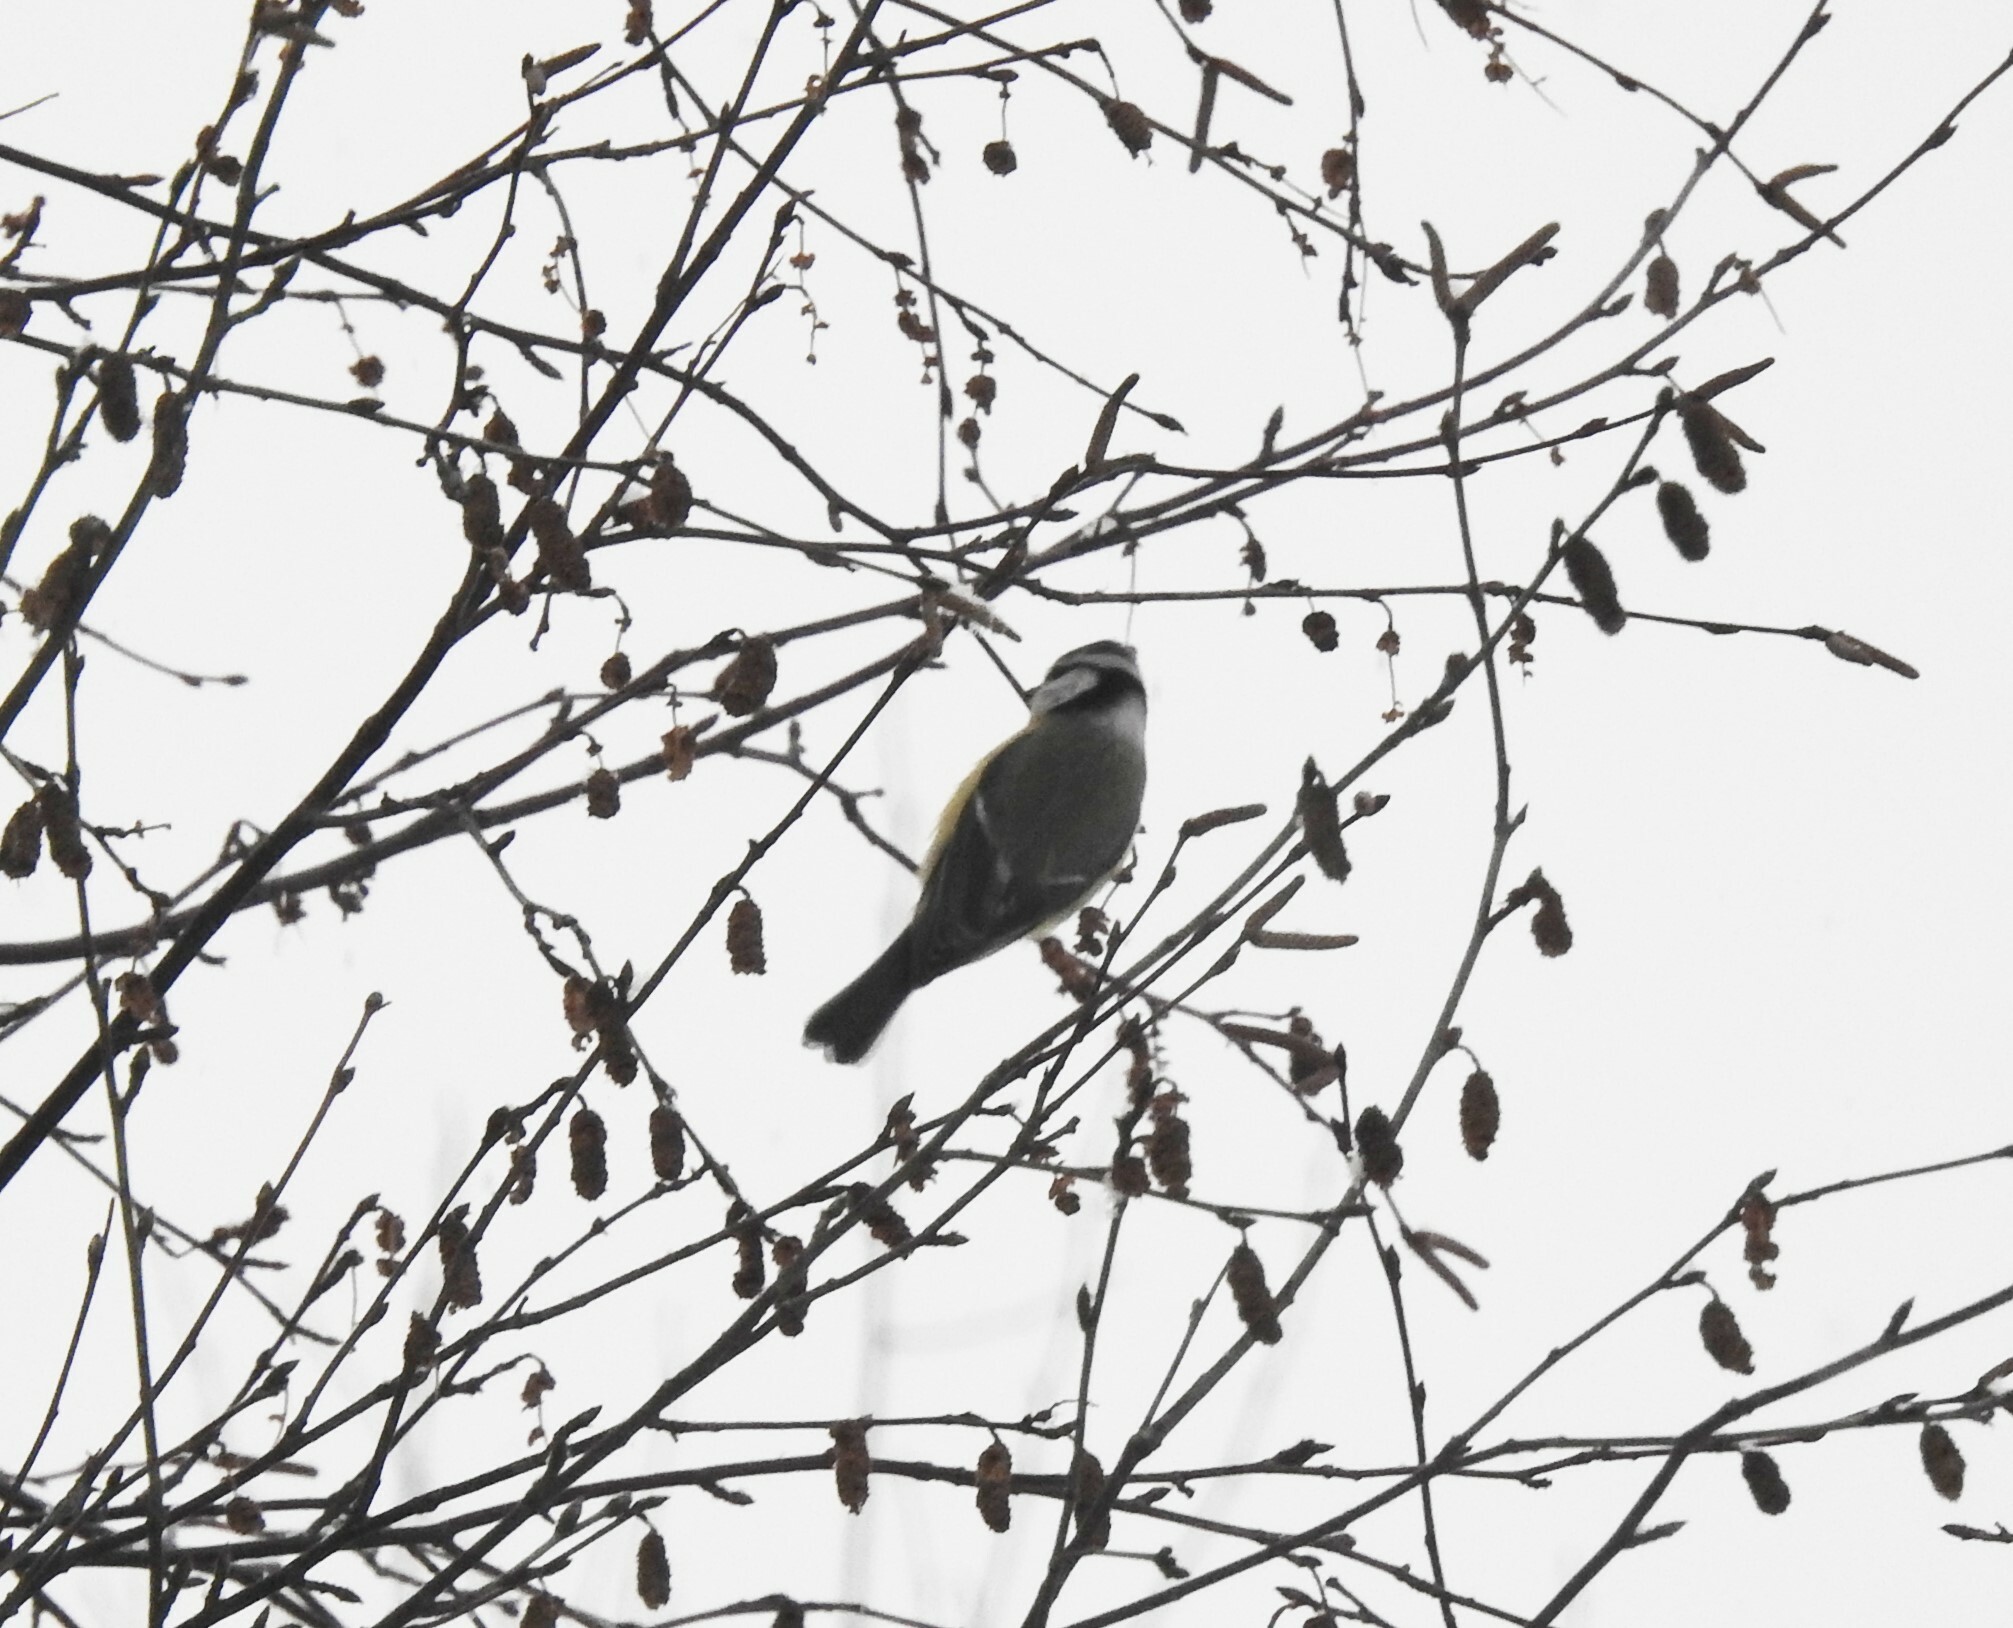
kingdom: Animalia
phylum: Chordata
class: Aves
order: Passeriformes
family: Paridae
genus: Cyanistes
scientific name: Cyanistes caeruleus
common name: Eurasian blue tit
